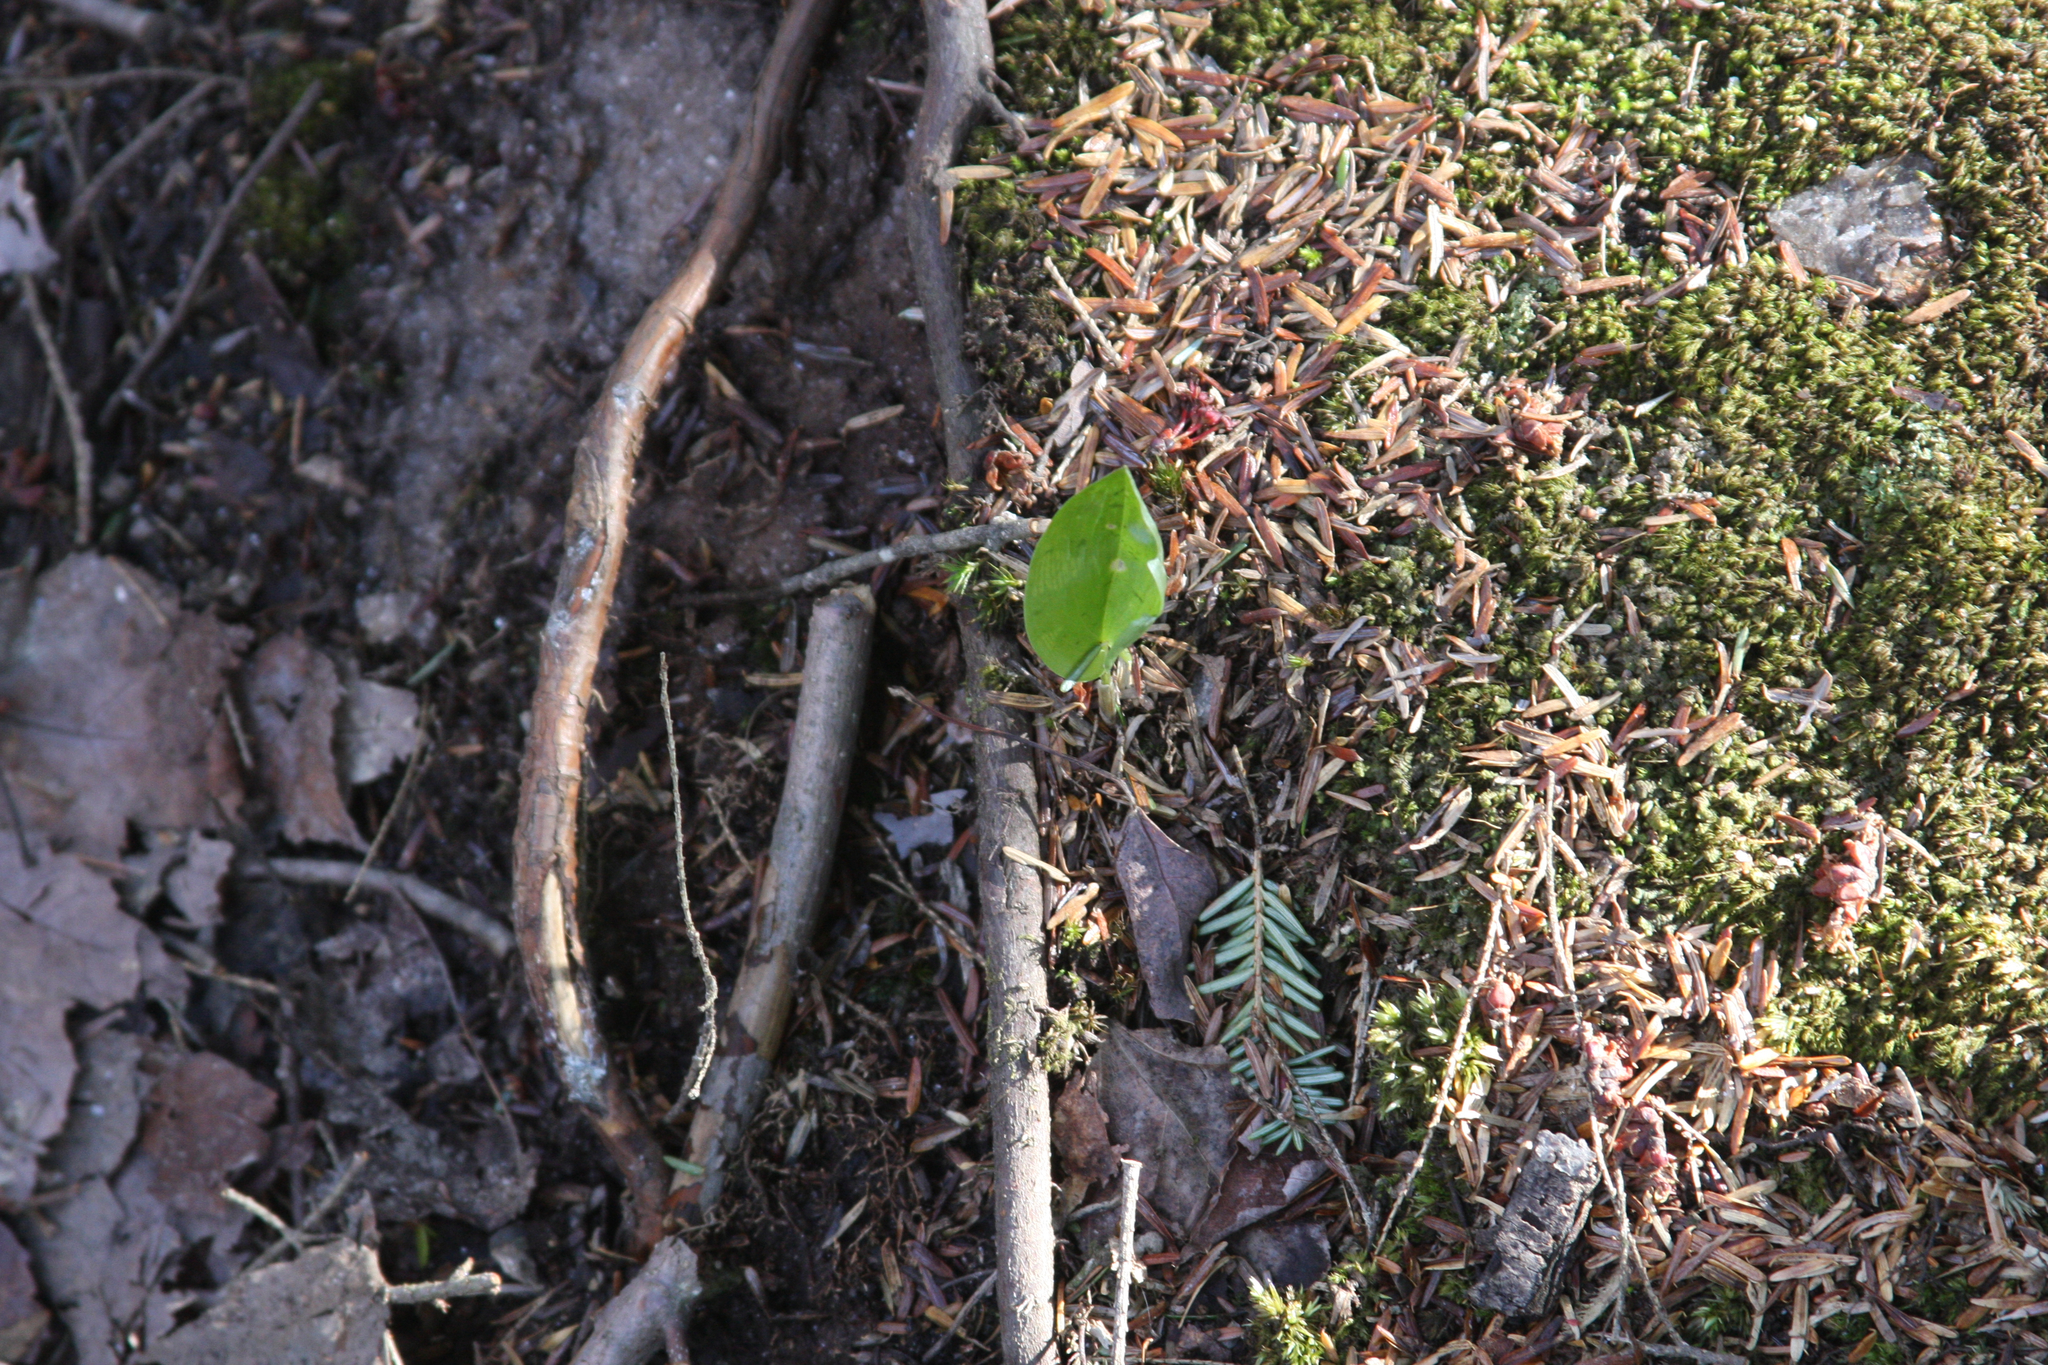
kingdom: Plantae
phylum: Tracheophyta
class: Liliopsida
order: Asparagales
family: Asparagaceae
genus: Maianthemum
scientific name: Maianthemum canadense
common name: False lily-of-the-valley
